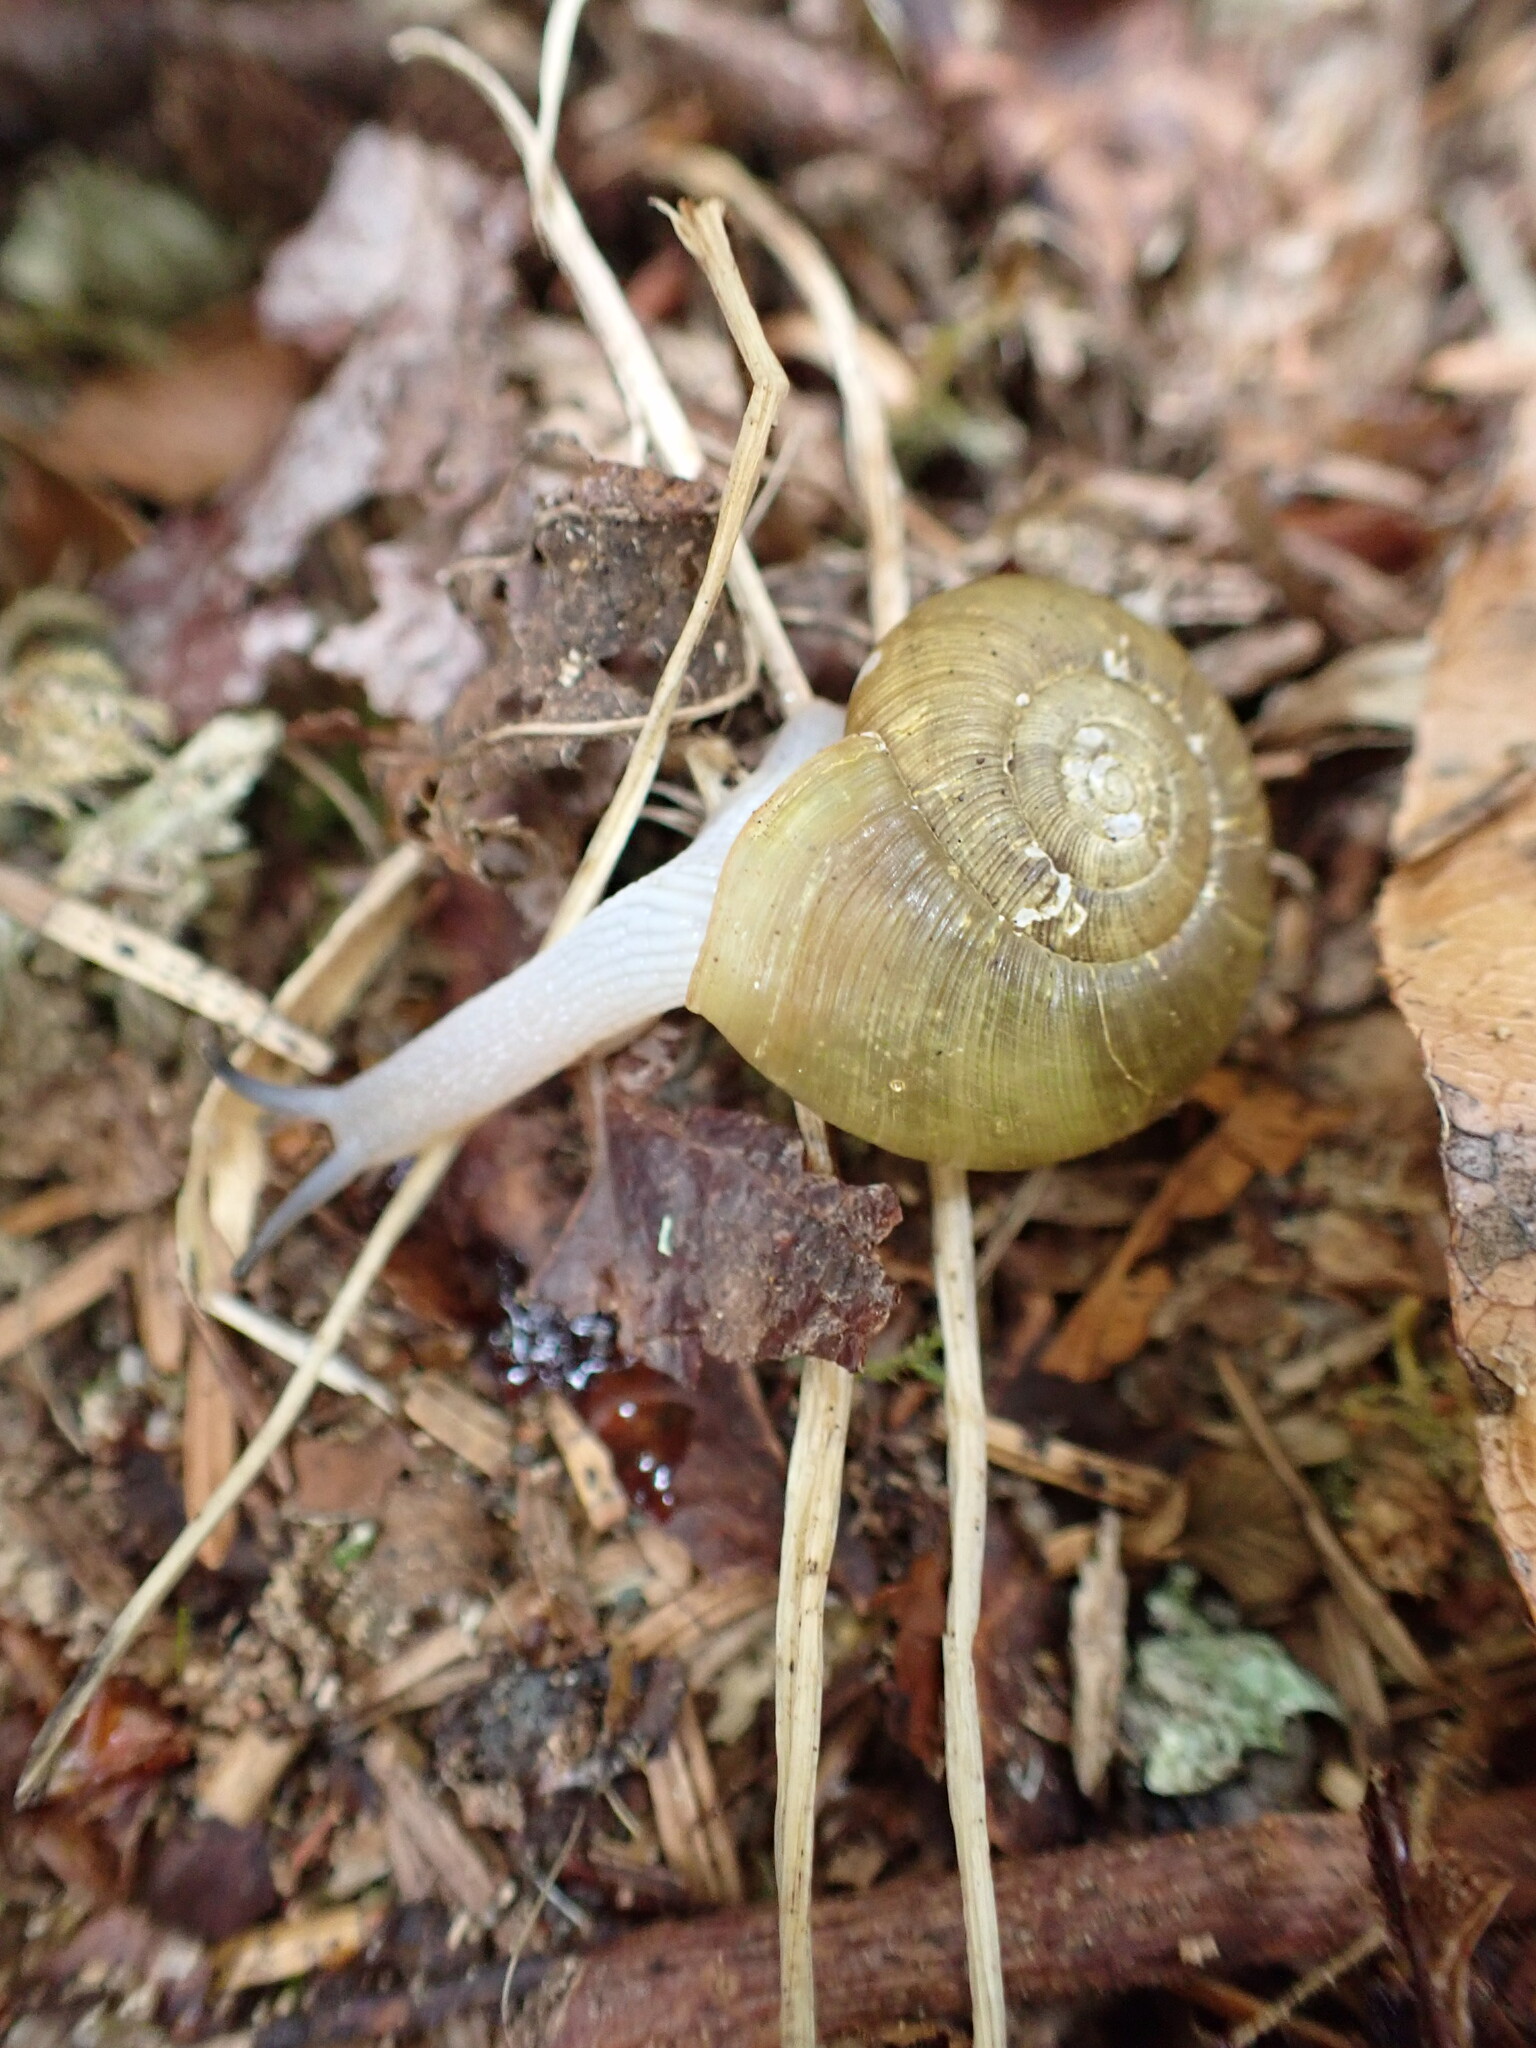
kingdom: Animalia
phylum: Mollusca
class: Gastropoda
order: Stylommatophora
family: Haplotrematidae
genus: Ancotrema
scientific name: Ancotrema sportella
